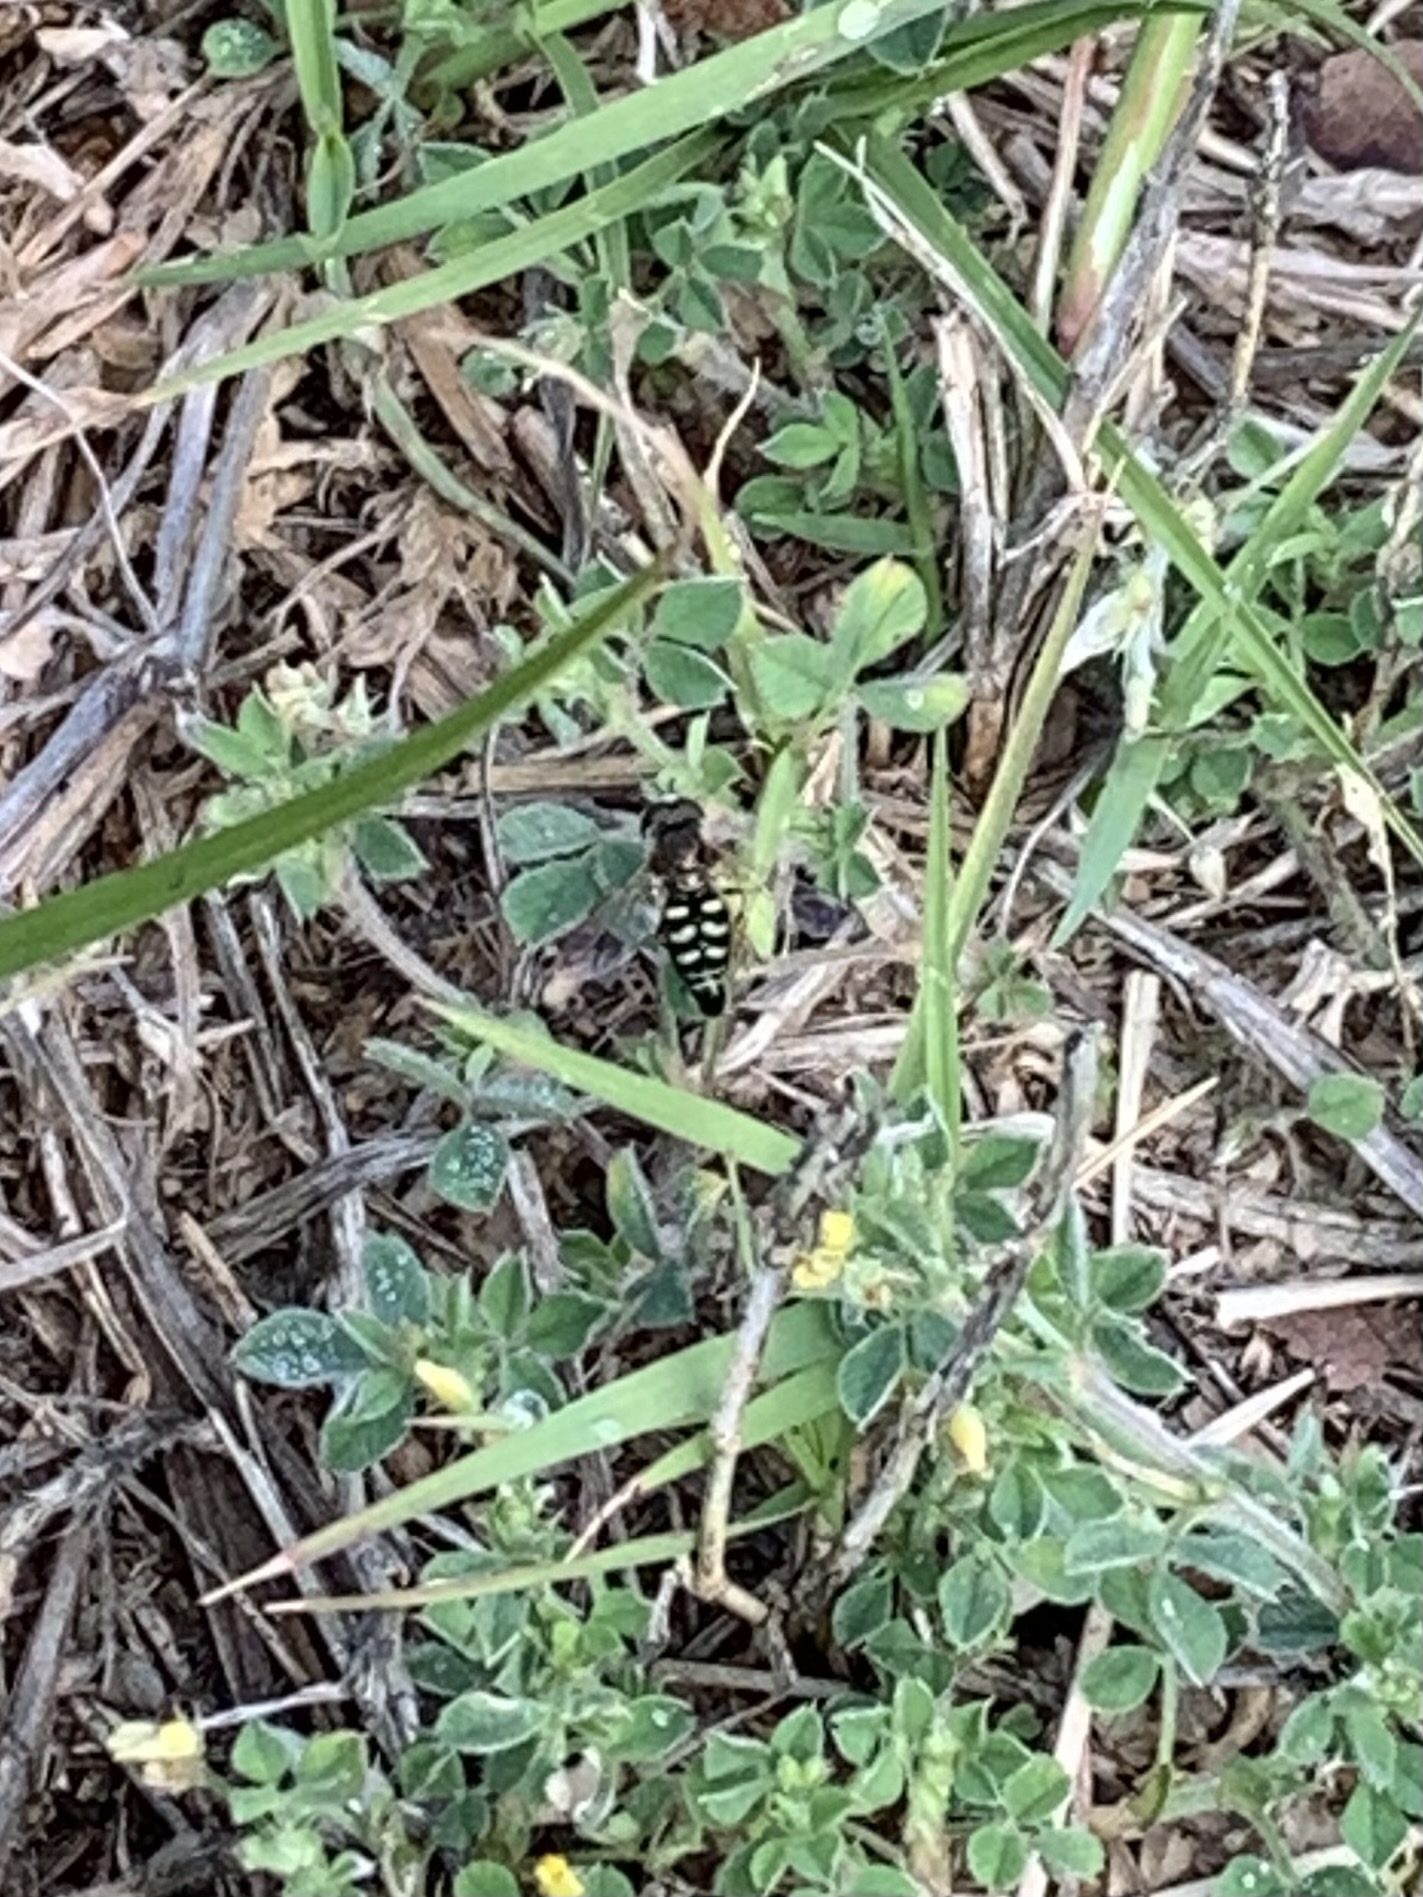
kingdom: Animalia
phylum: Arthropoda
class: Insecta
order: Diptera
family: Syrphidae
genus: Eupeodes
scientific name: Eupeodes volucris
